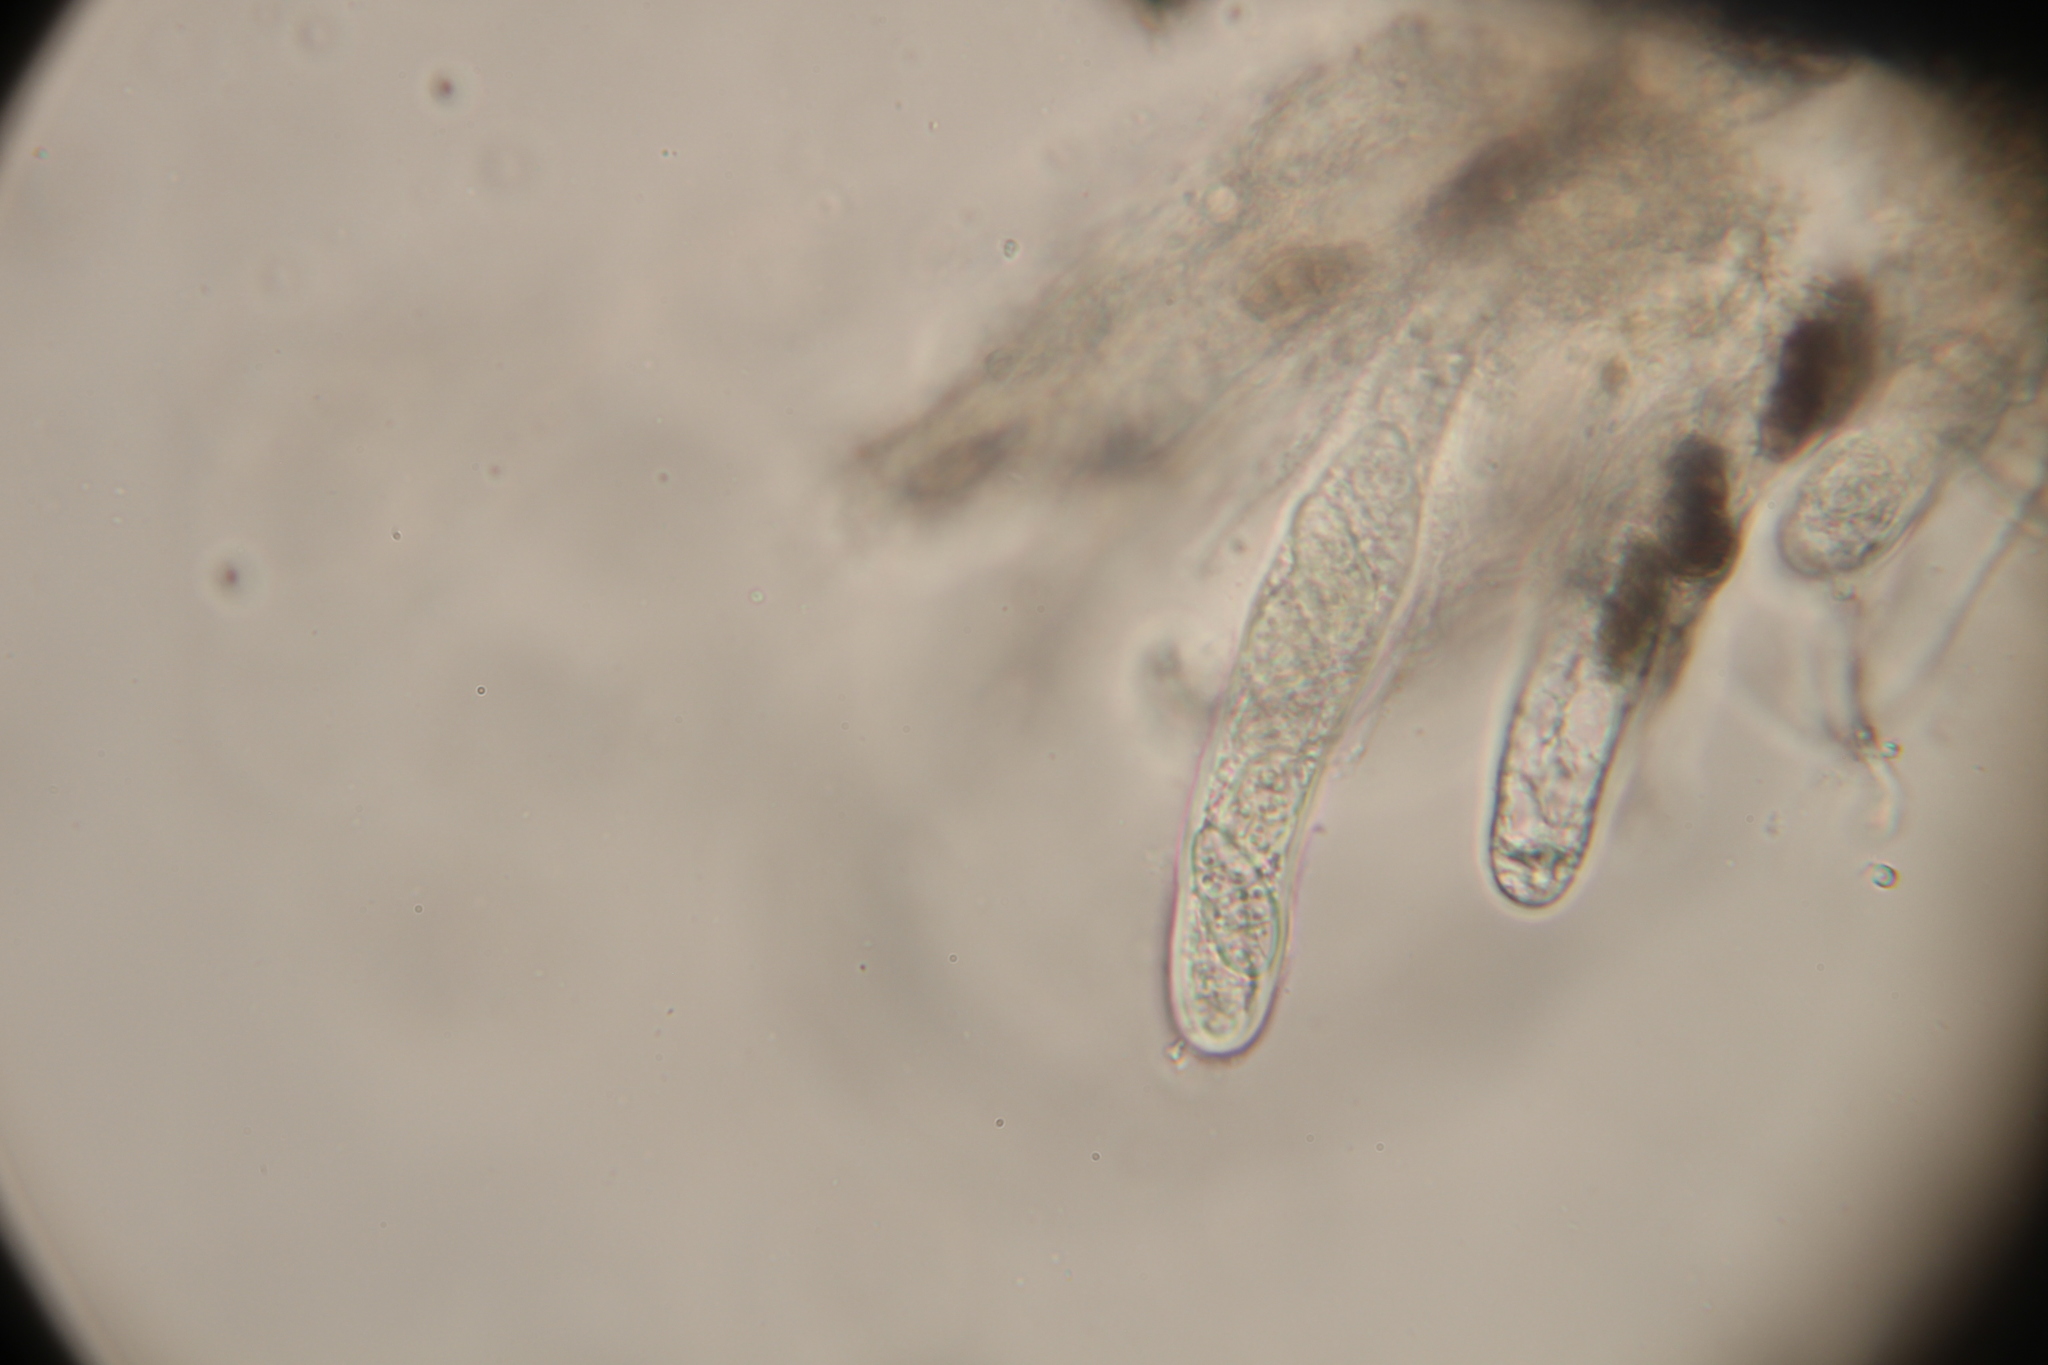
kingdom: Fungi
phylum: Ascomycota
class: Dothideomycetes
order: Hysteriales
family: Hysteriaceae
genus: Hysterobrevium
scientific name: Hysterobrevium mori
